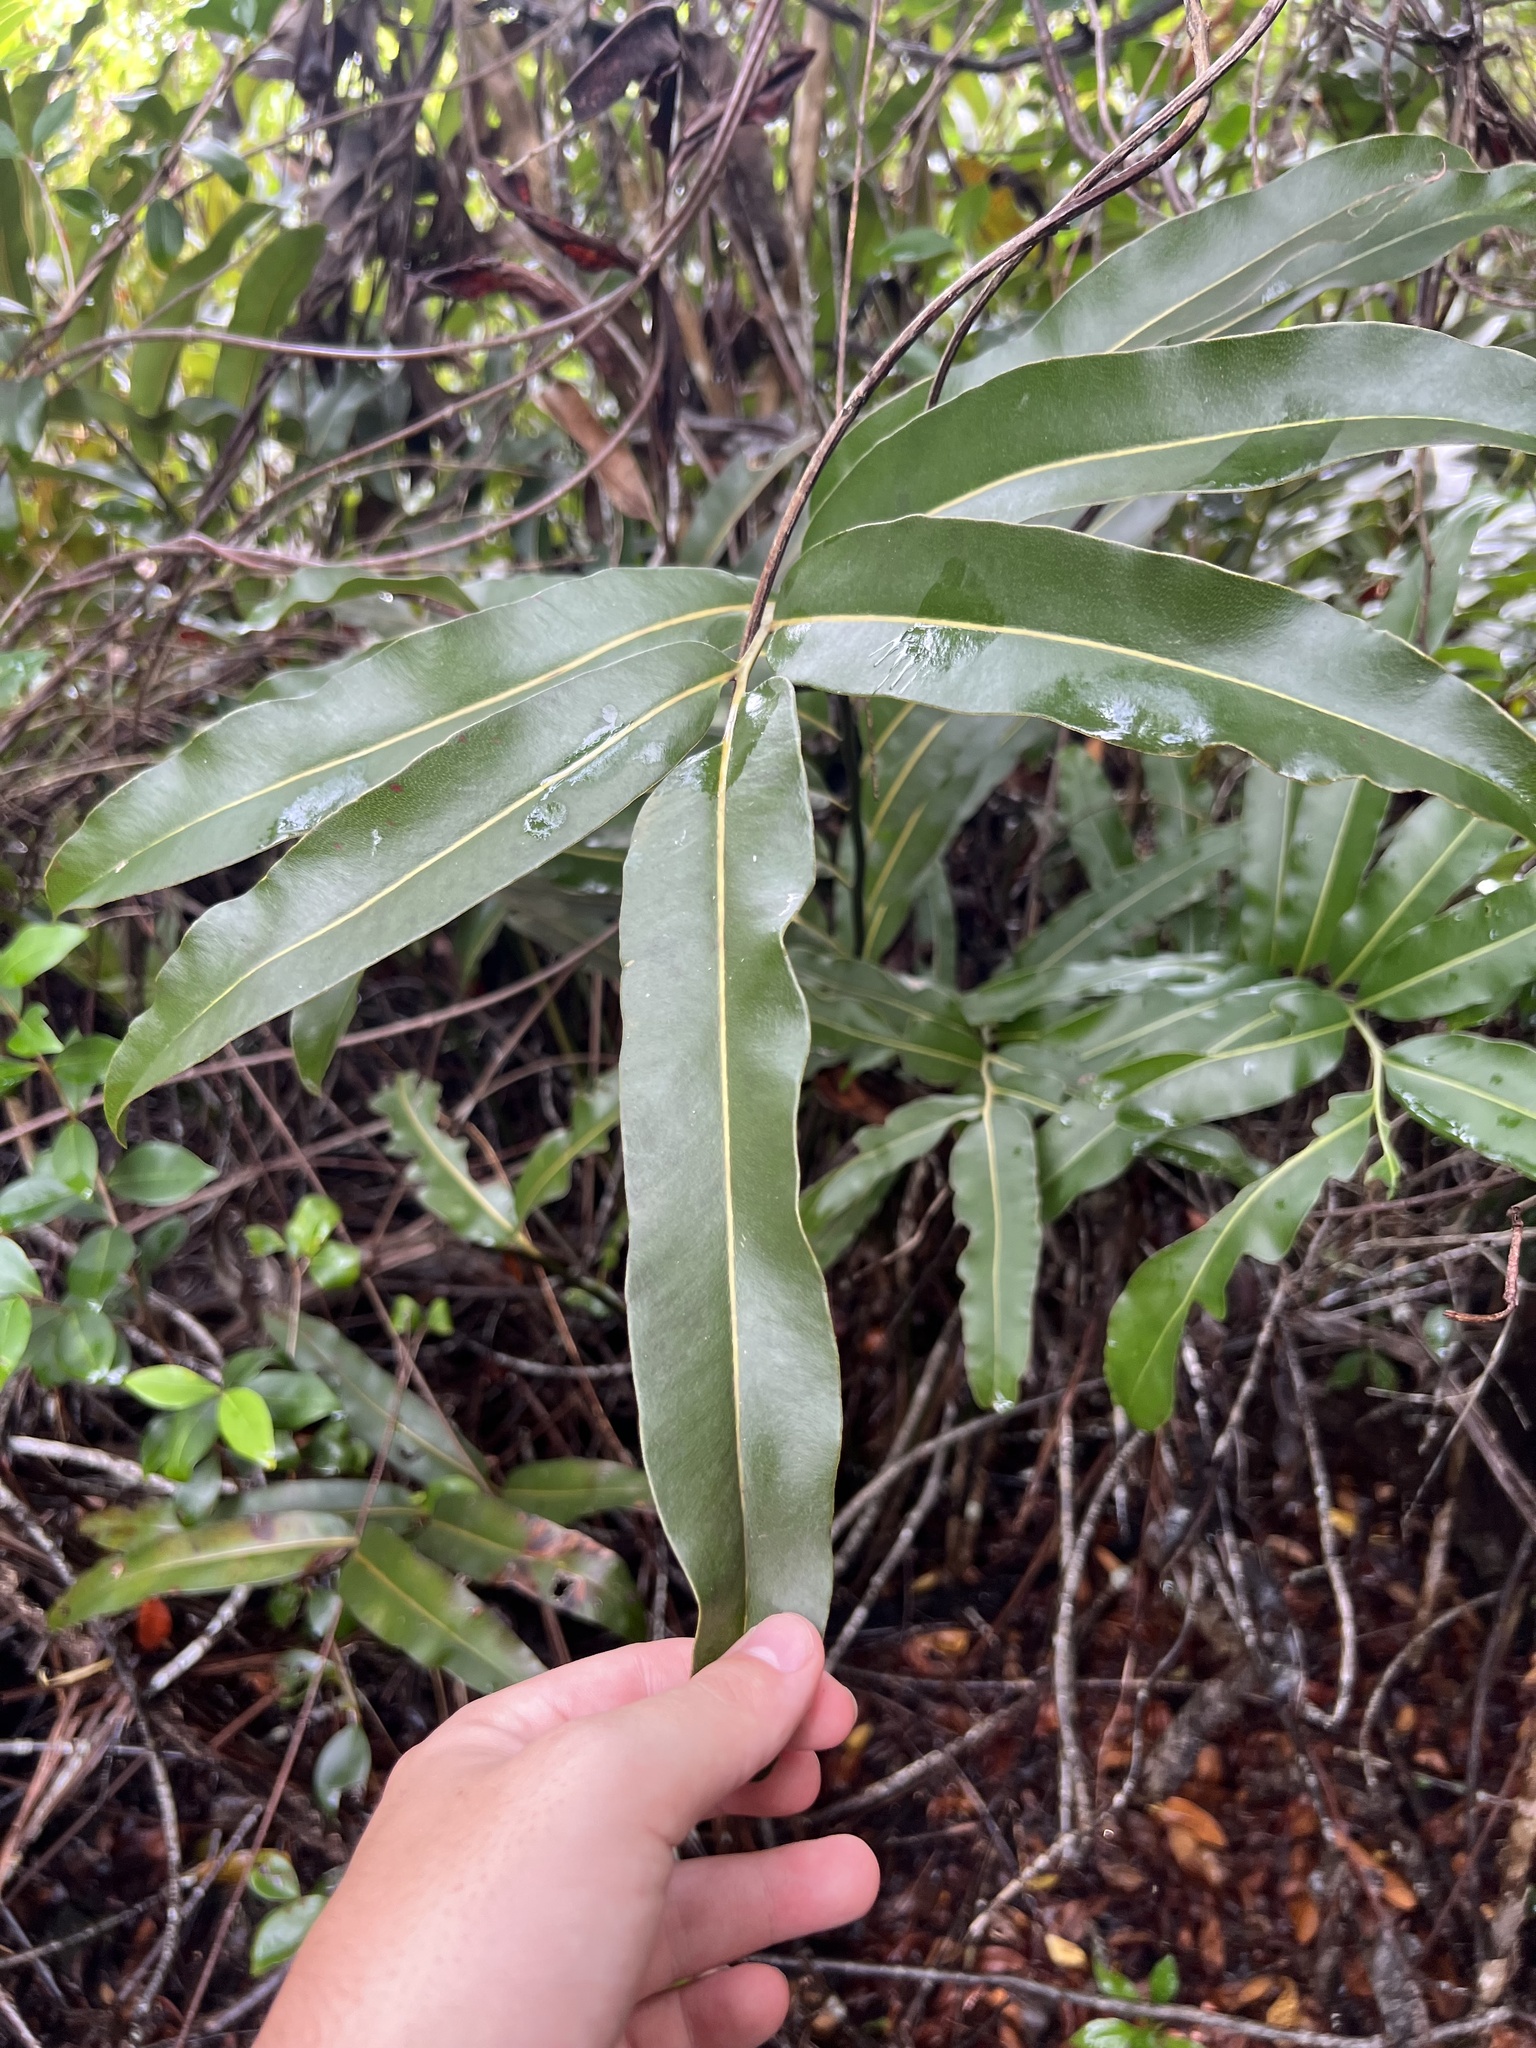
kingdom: Plantae
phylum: Tracheophyta
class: Polypodiopsida
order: Polypodiales
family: Pteridaceae
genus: Acrostichum
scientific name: Acrostichum aureum
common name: Leather fern
